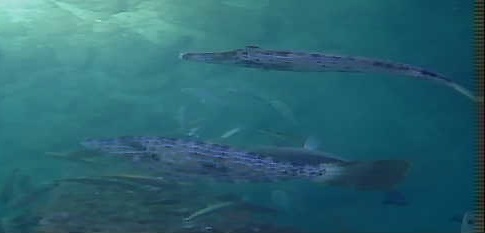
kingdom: Animalia
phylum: Chordata
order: Tetraodontiformes
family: Monacanthidae
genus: Aluterus
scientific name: Aluterus scriptus
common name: Scribbled leatherjacket filefish
